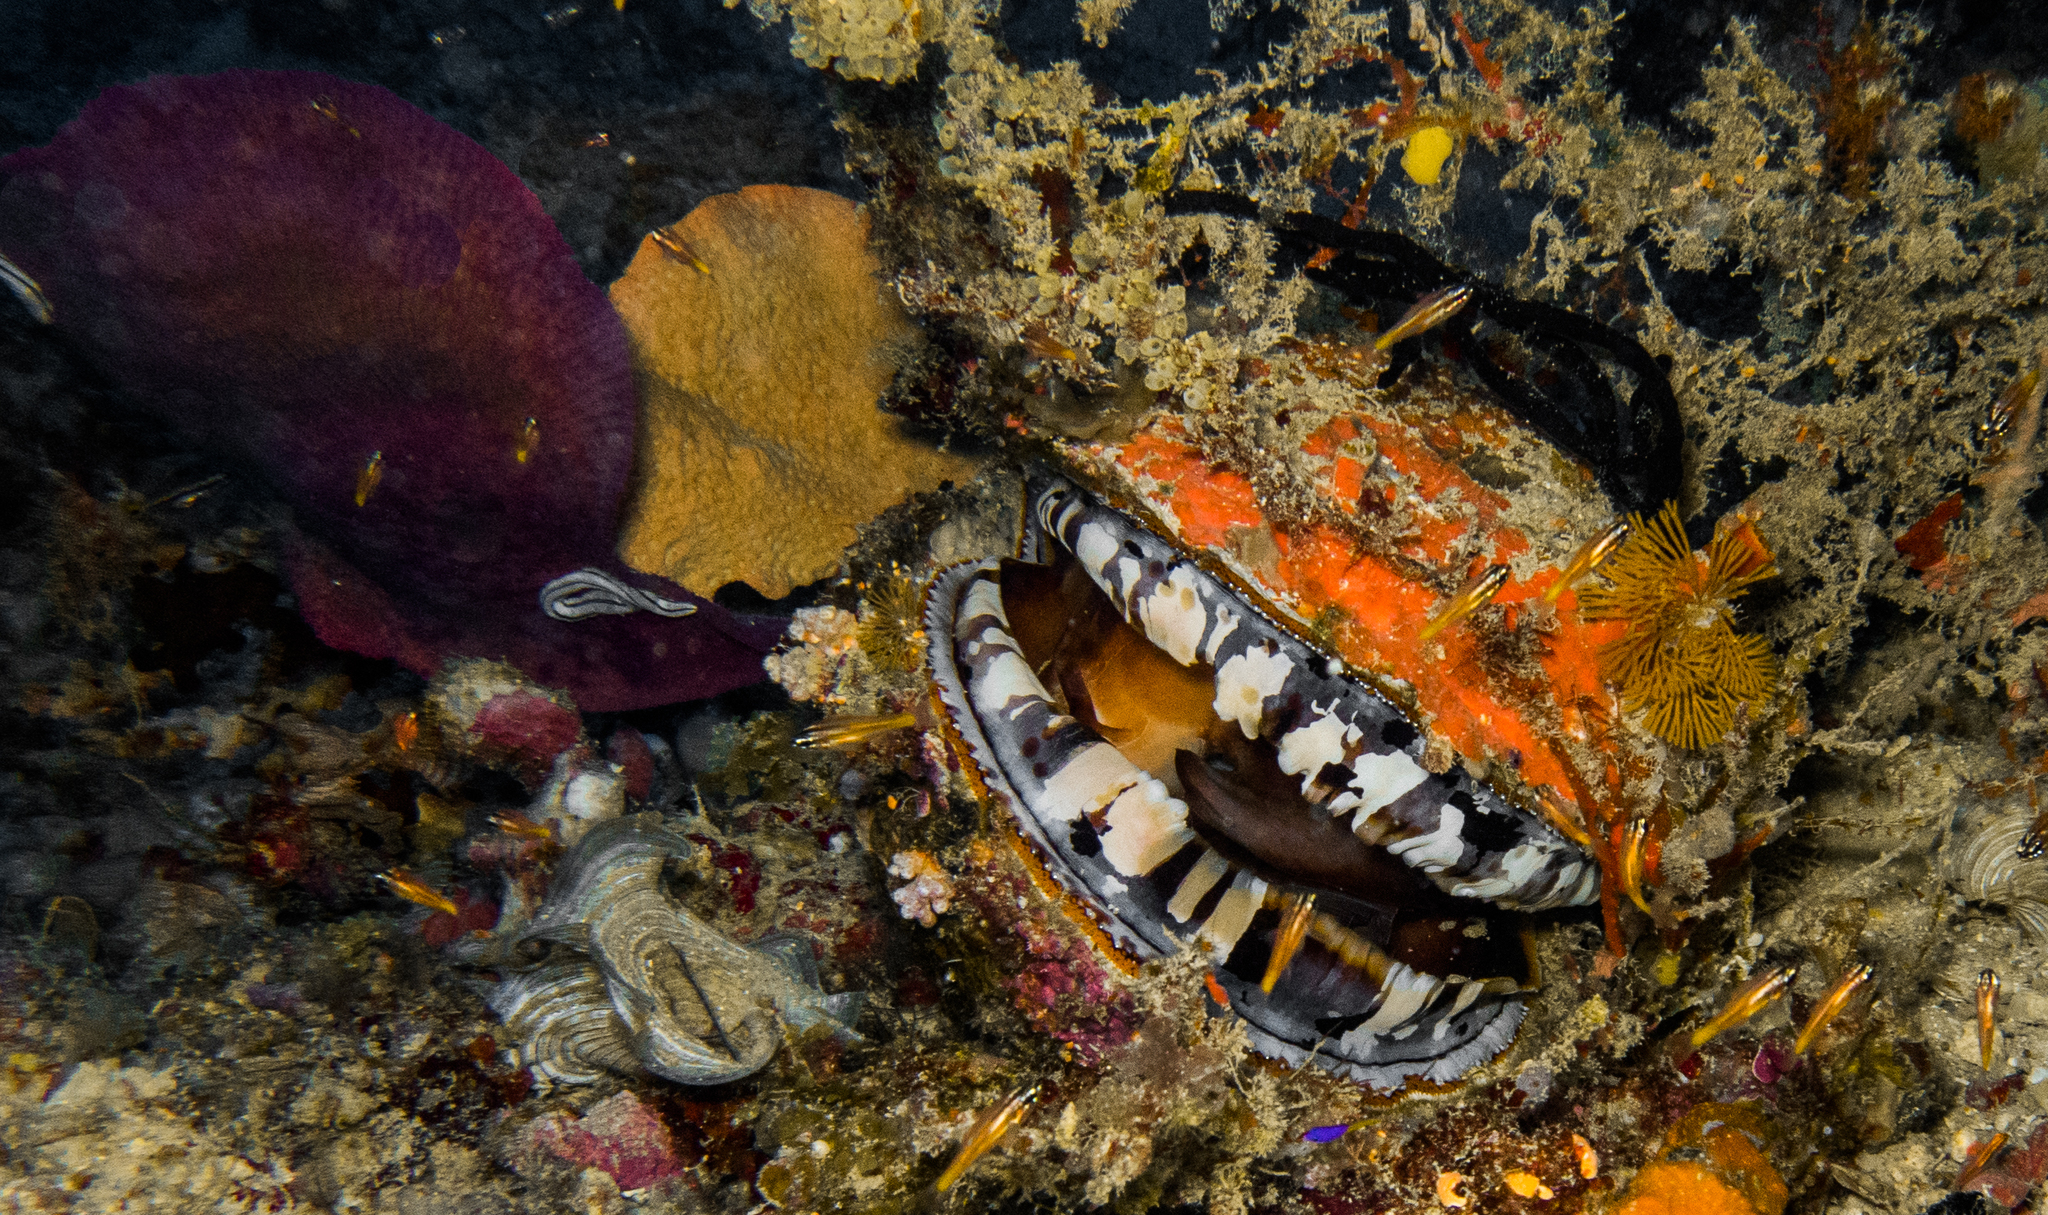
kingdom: Animalia
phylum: Mollusca
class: Bivalvia
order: Pectinida
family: Spondylidae
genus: Spondylus
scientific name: Spondylus varius
